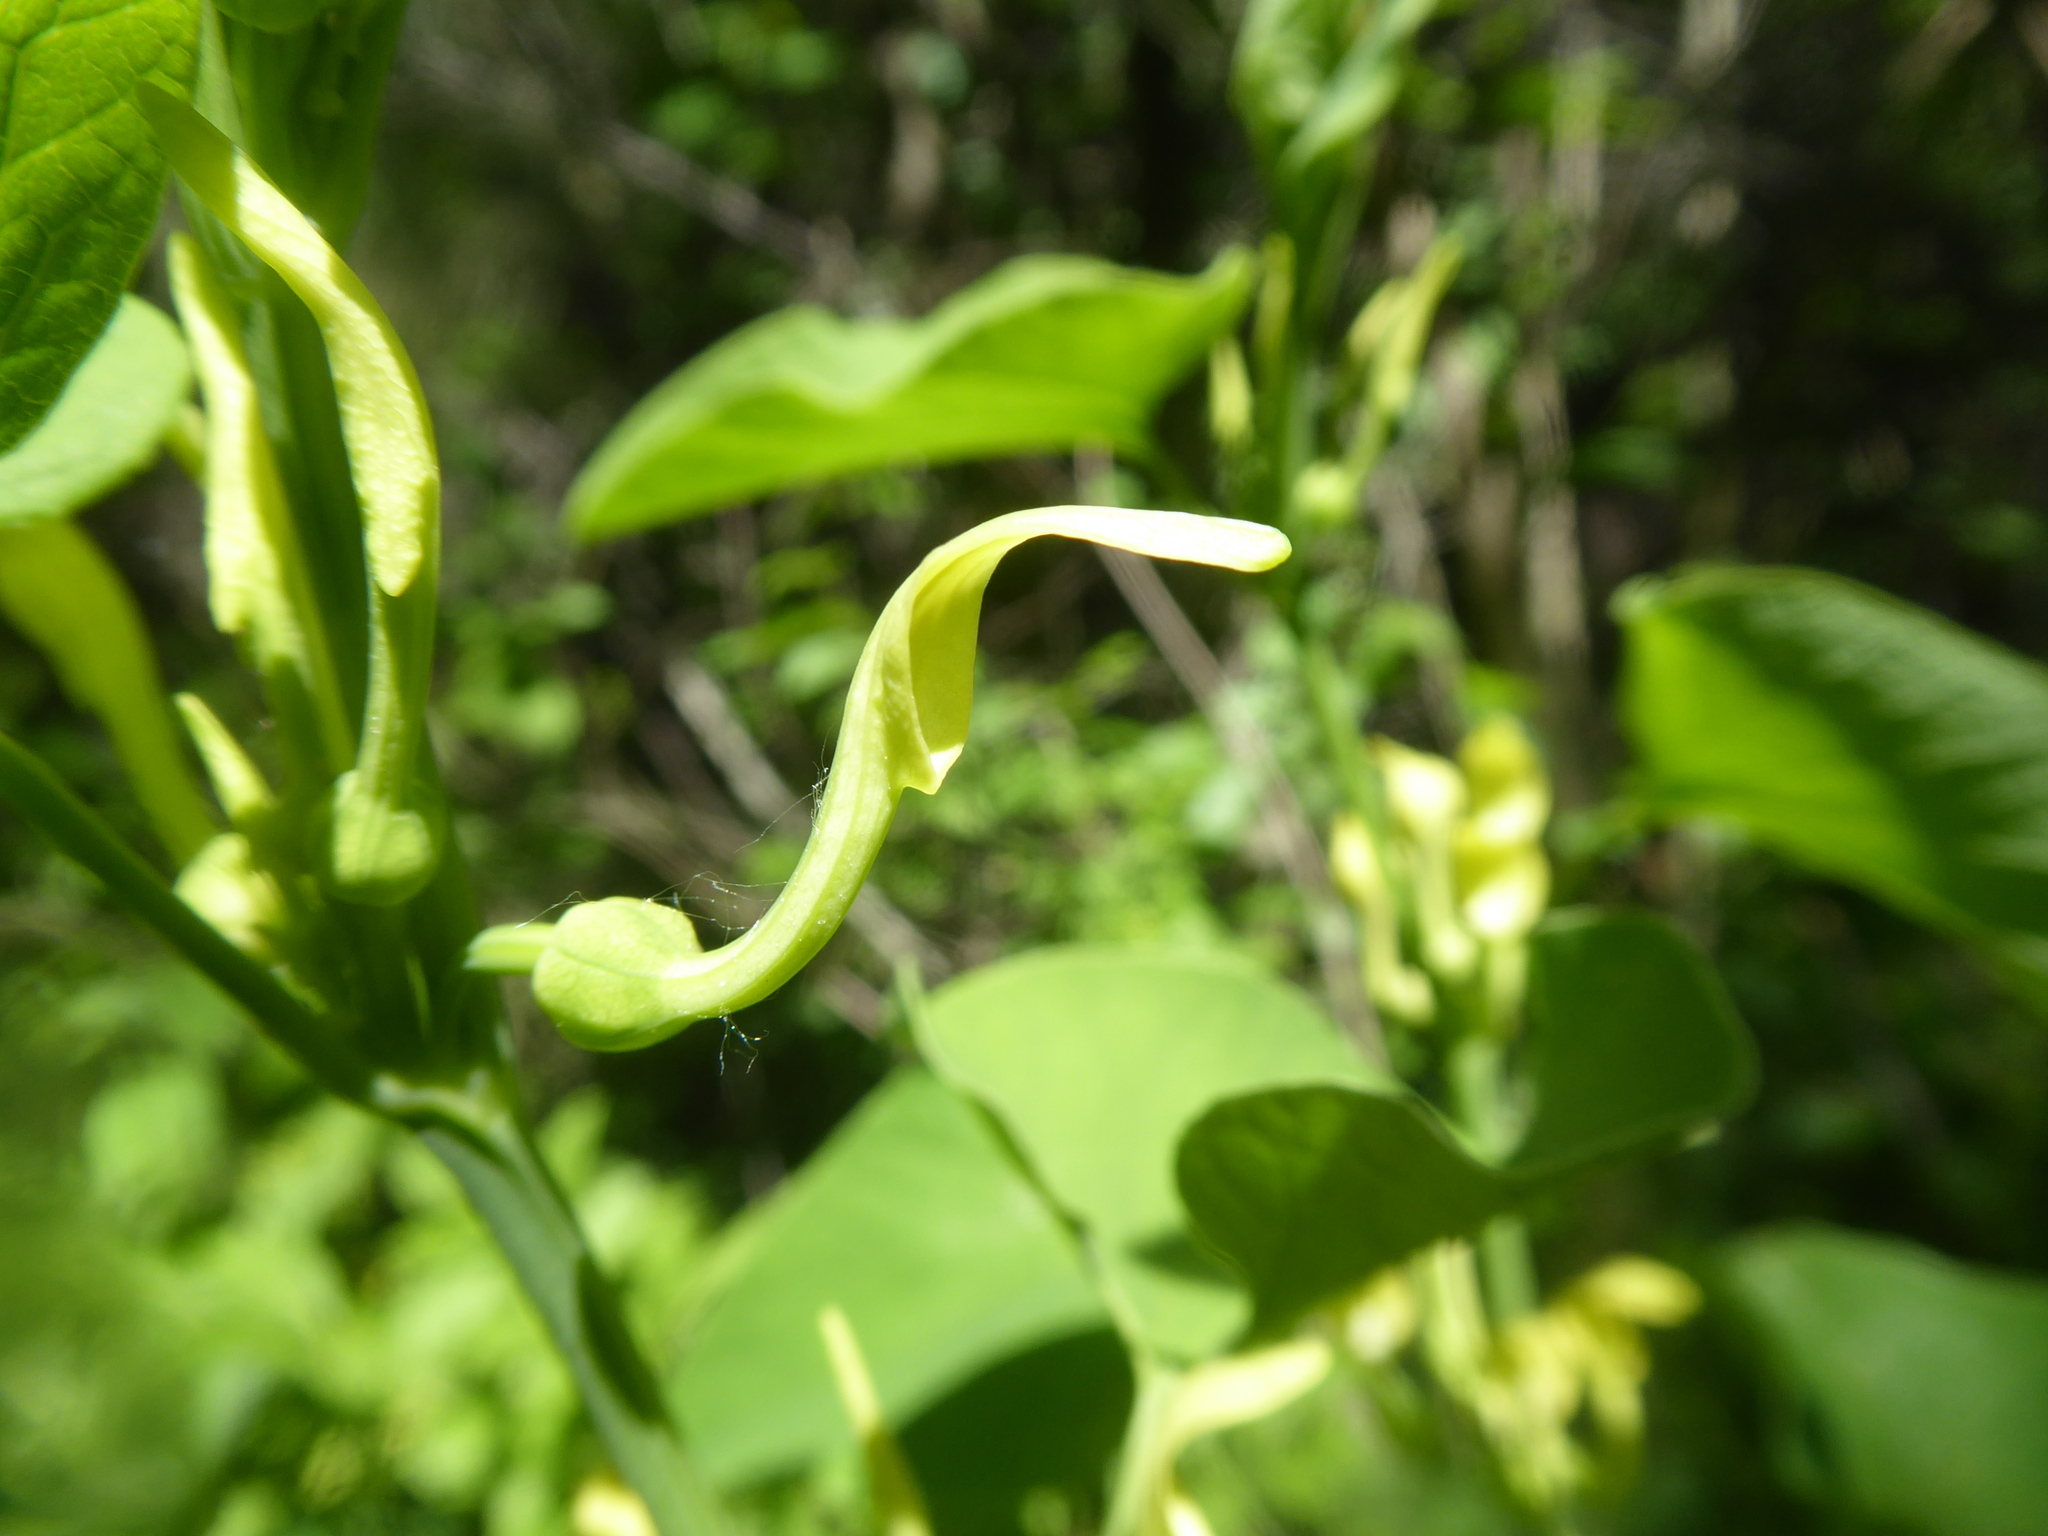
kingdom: Plantae
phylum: Tracheophyta
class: Magnoliopsida
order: Piperales
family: Aristolochiaceae
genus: Aristolochia
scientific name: Aristolochia clematitis
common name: Birthwort
